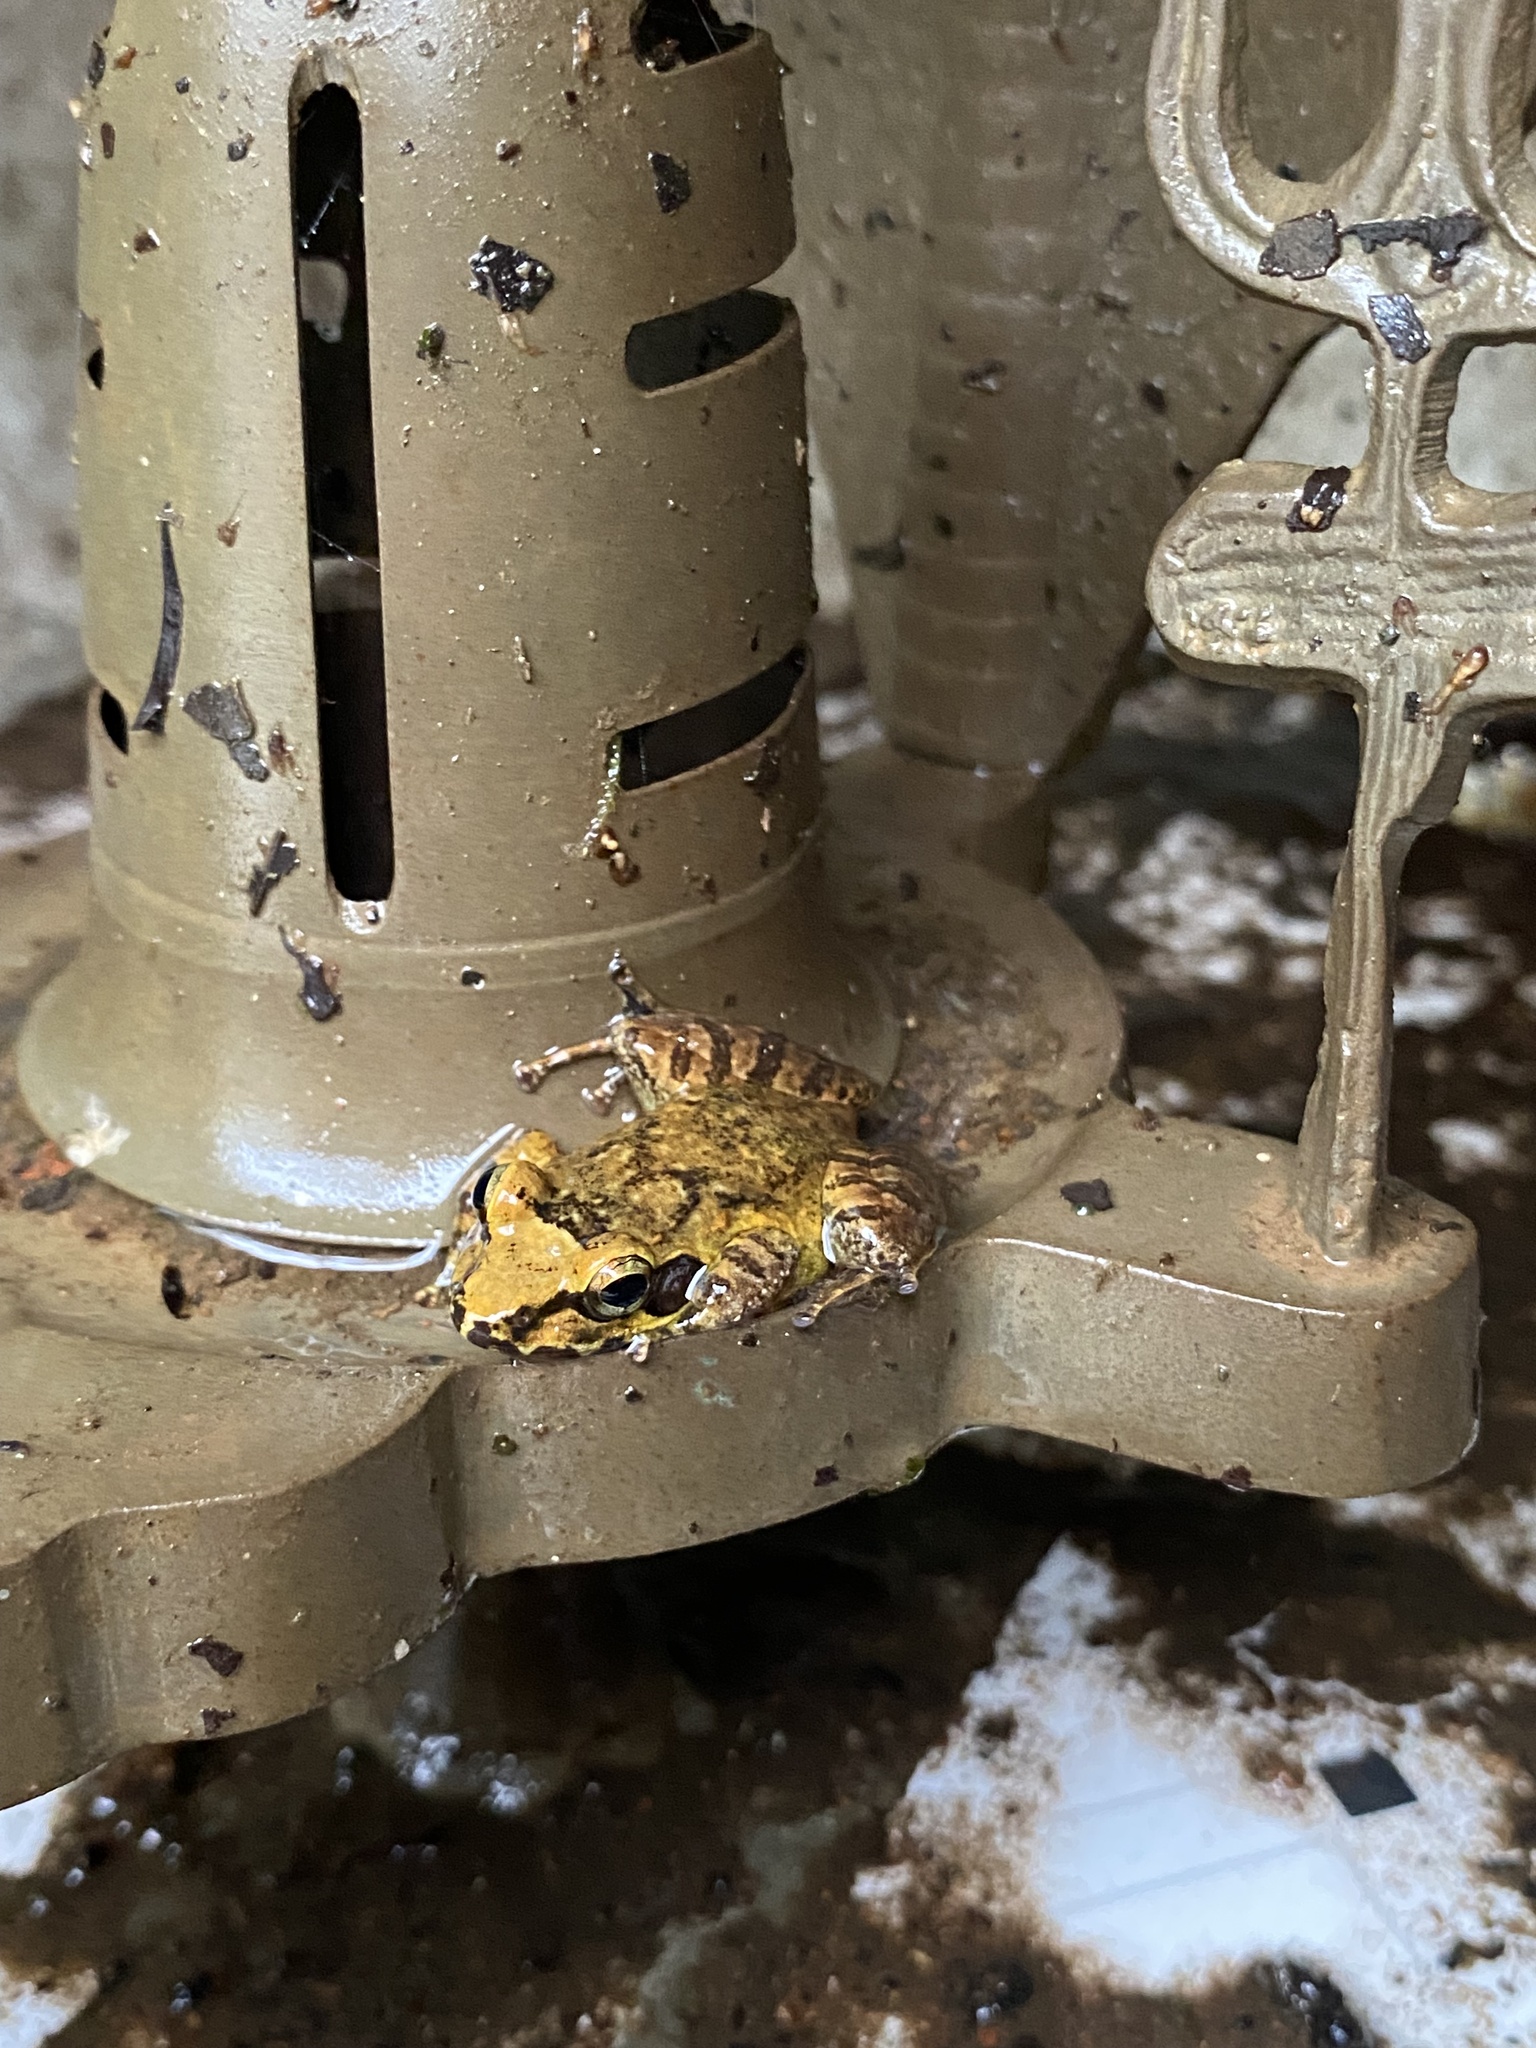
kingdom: Animalia
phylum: Chordata
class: Amphibia
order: Anura
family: Ranixalidae
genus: Indirana
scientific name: Indirana chiravasi
